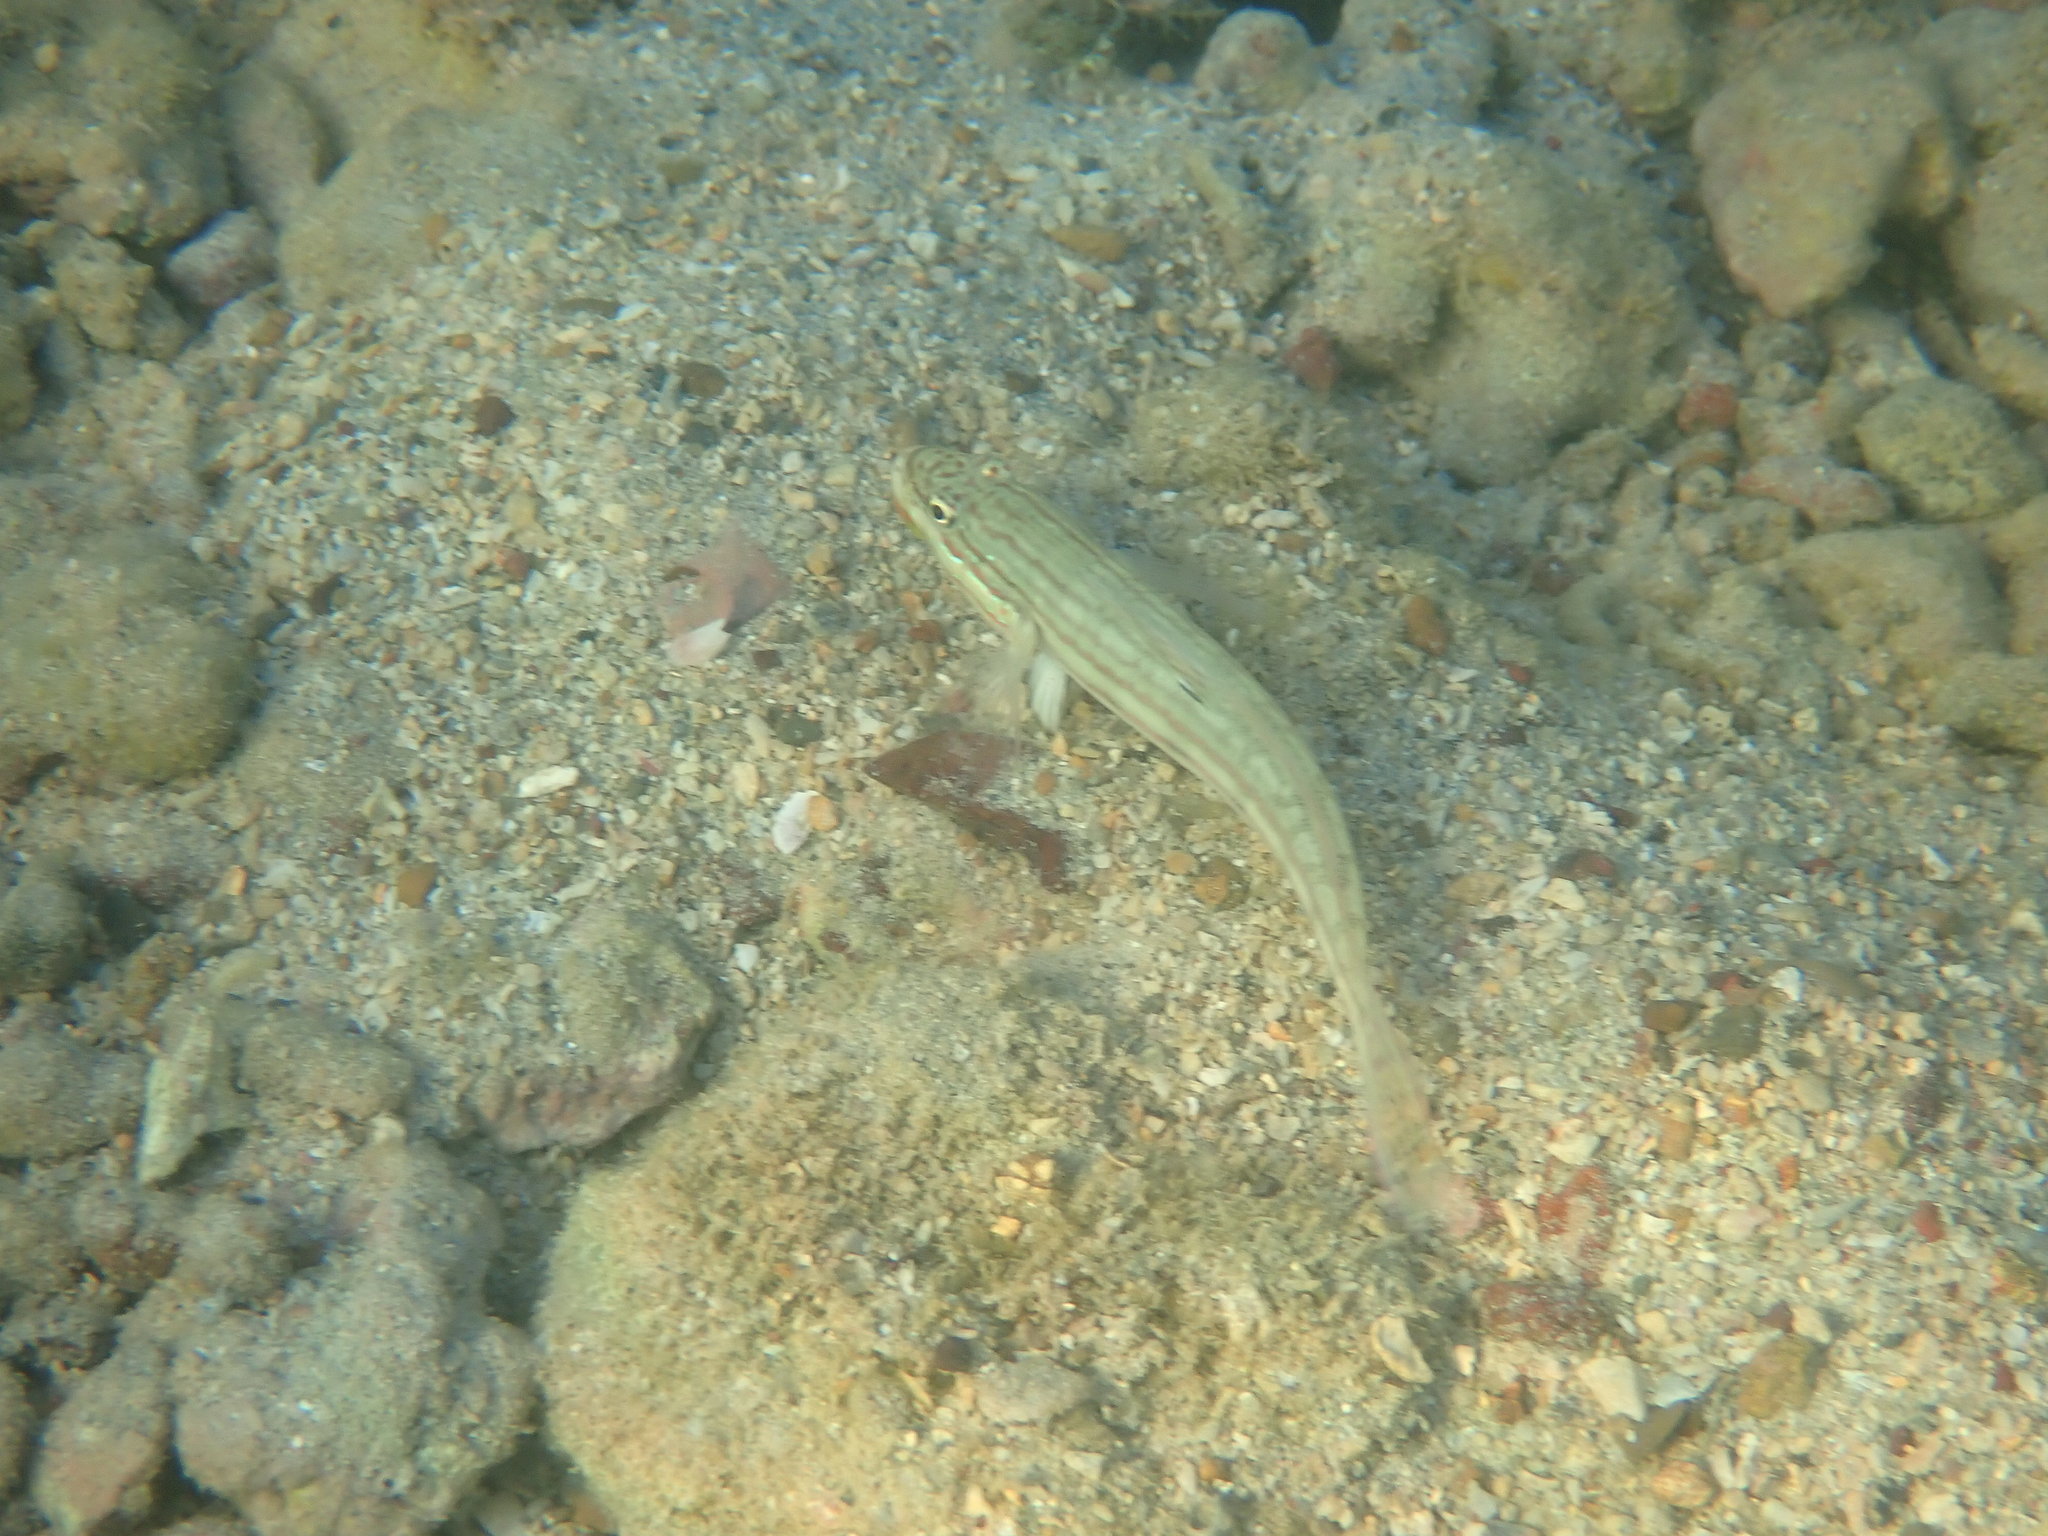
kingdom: Animalia
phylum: Chordata
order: Perciformes
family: Gobiidae
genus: Valenciennea
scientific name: Valenciennea muralis
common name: Mural goby
